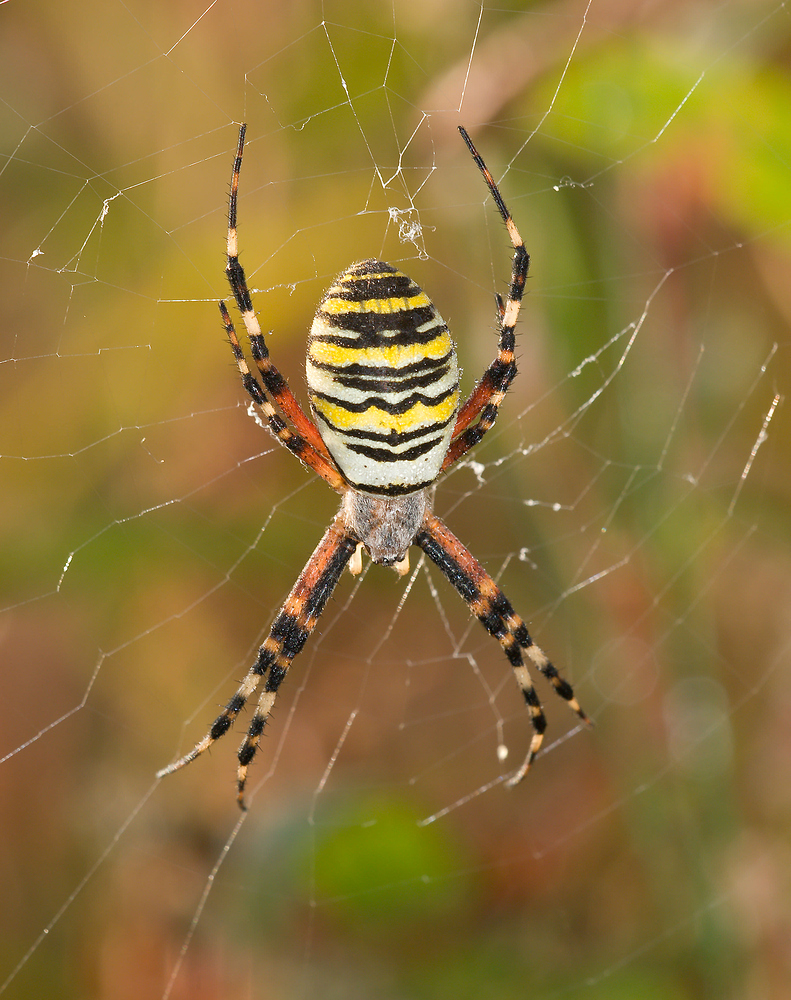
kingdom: Animalia
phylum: Arthropoda
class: Arachnida
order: Araneae
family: Araneidae
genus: Argiope
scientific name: Argiope bruennichi
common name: Wasp spider
